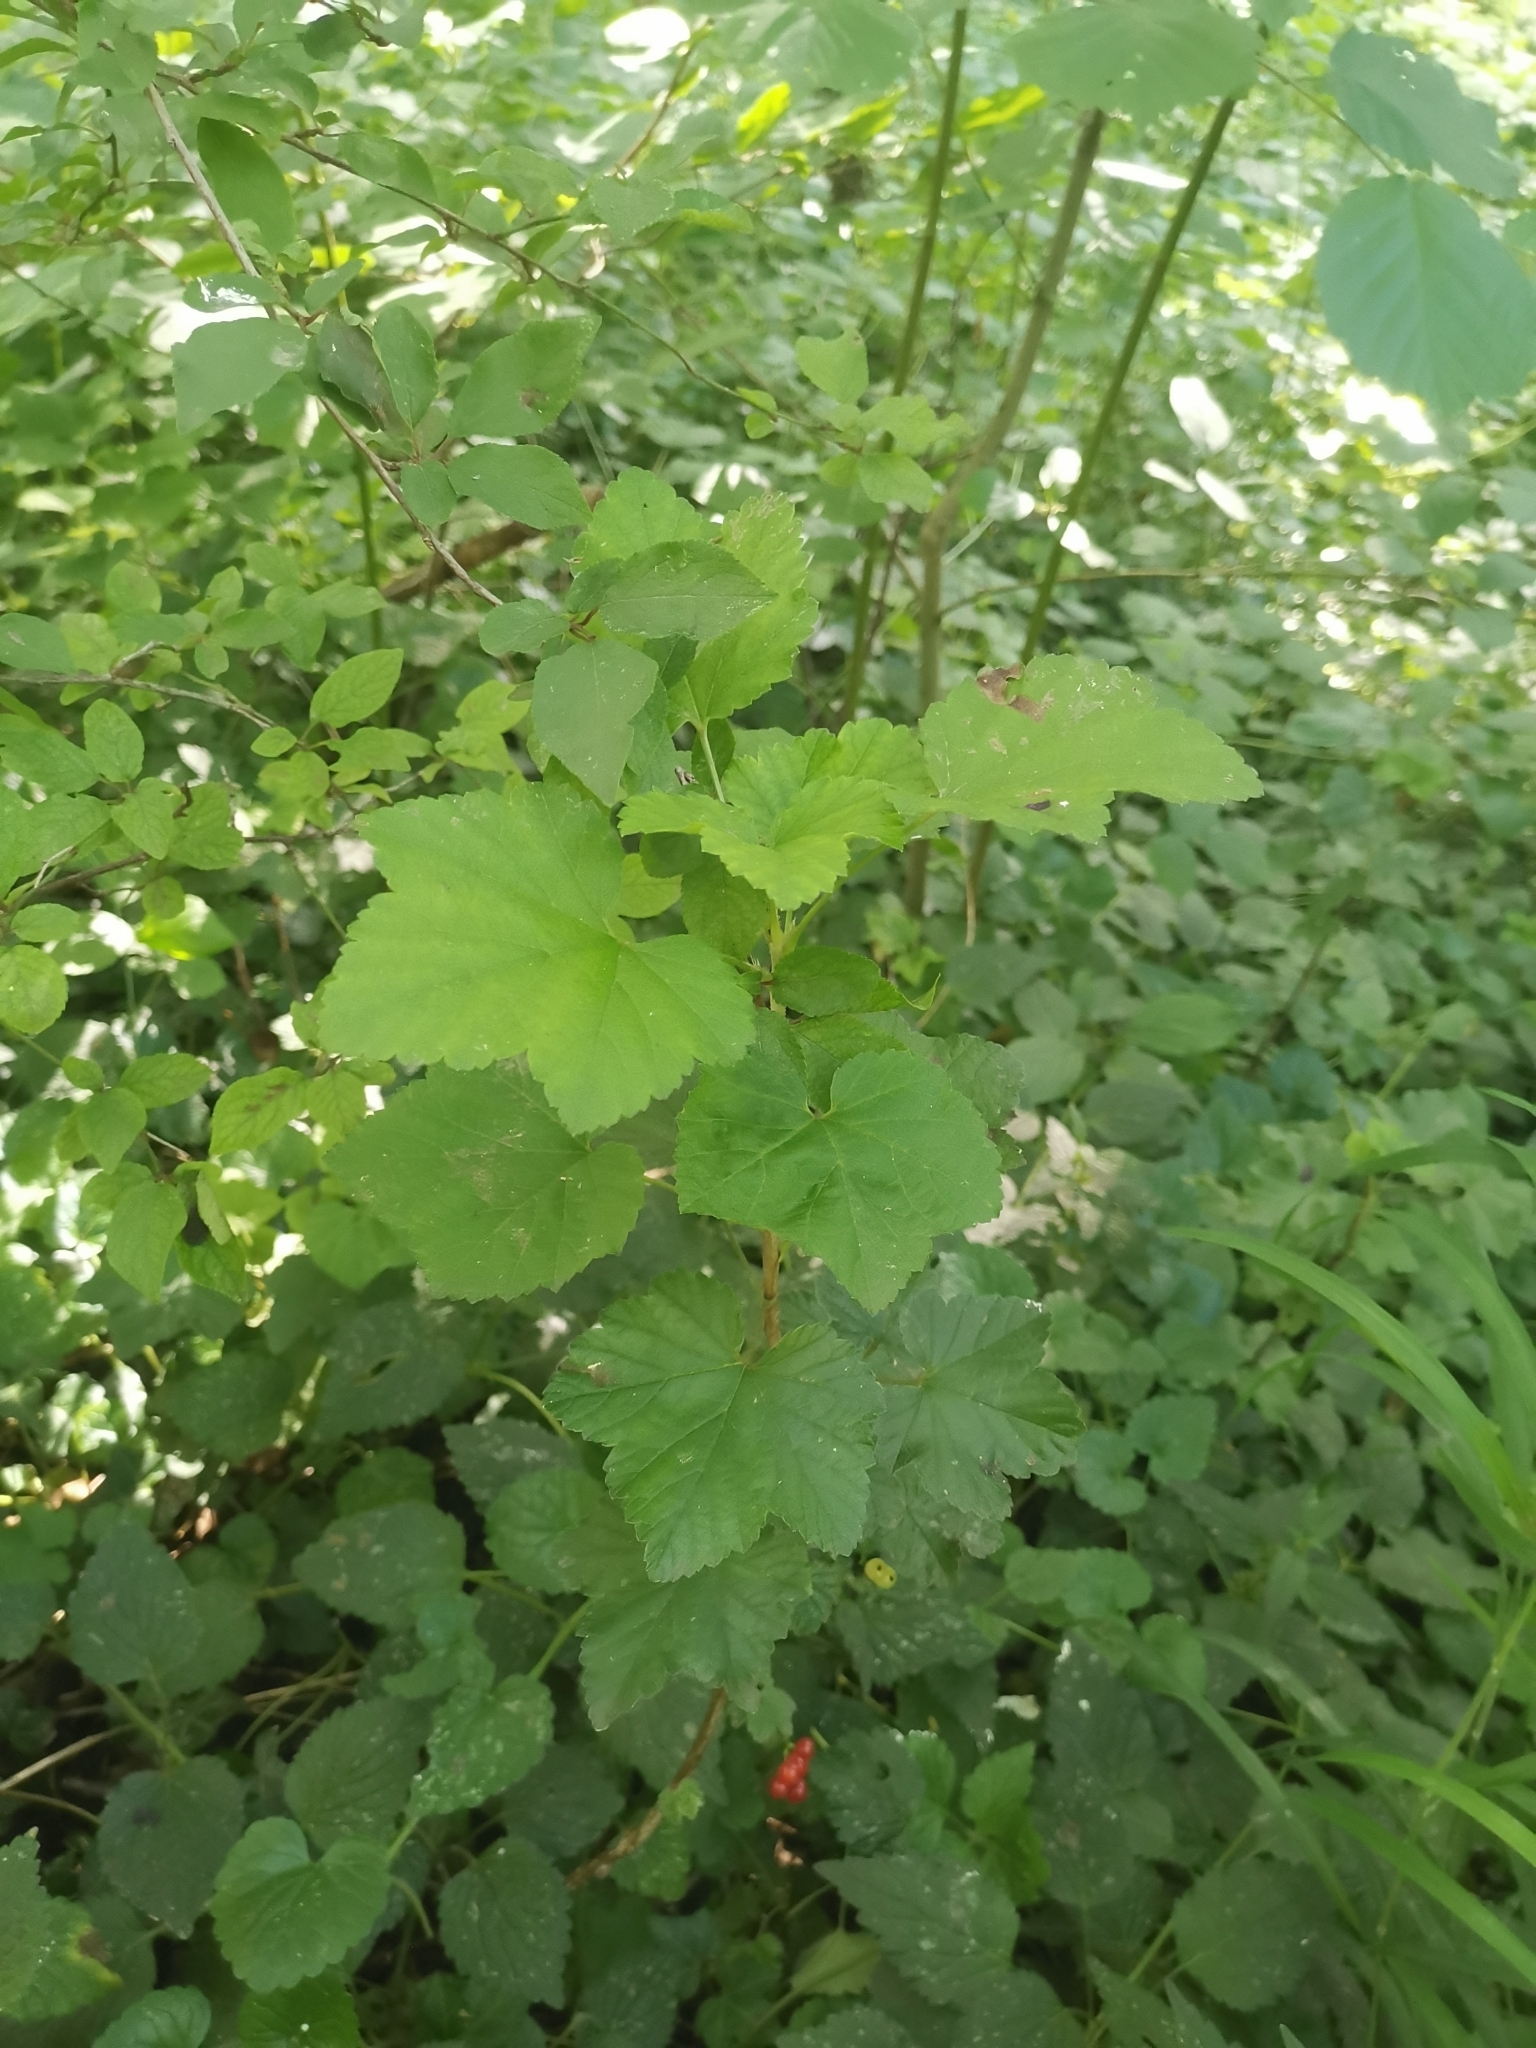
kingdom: Plantae
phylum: Tracheophyta
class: Magnoliopsida
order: Saxifragales
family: Grossulariaceae
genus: Ribes
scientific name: Ribes rubrum
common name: Red currant
